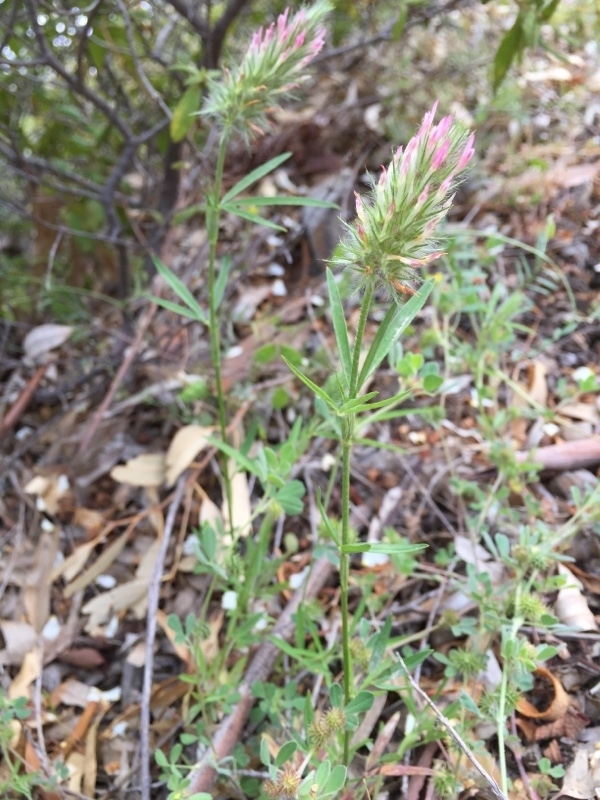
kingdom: Plantae
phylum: Tracheophyta
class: Magnoliopsida
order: Fabales
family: Fabaceae
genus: Trifolium
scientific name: Trifolium angustifolium
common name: Narrow clover
